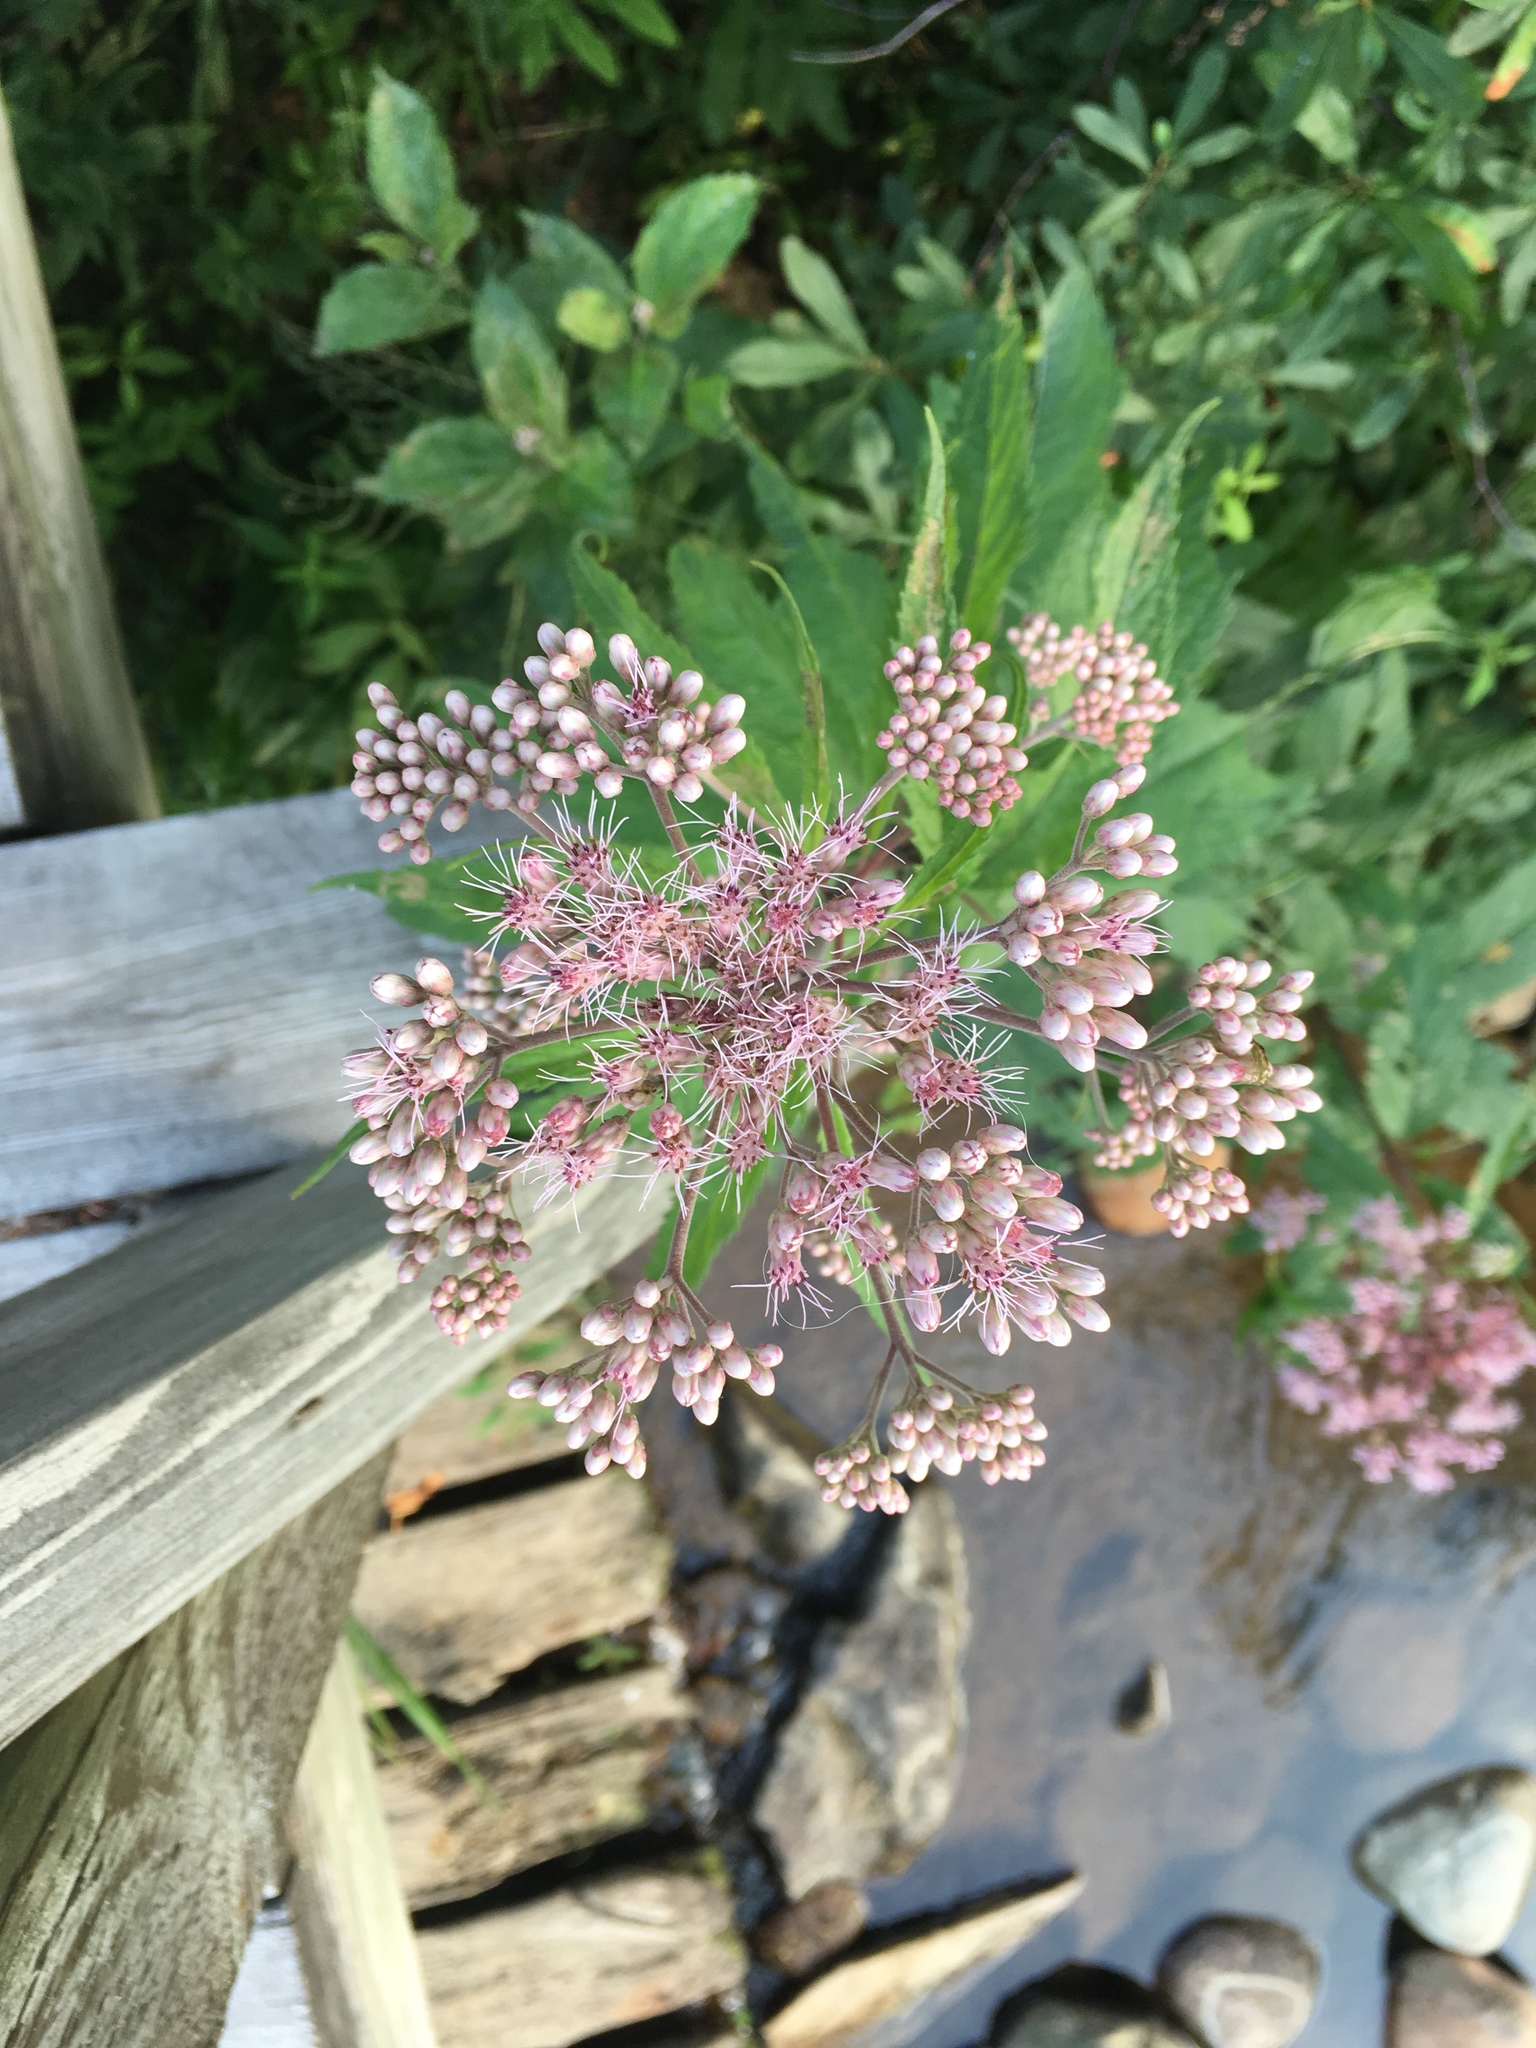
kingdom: Plantae
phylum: Tracheophyta
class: Magnoliopsida
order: Asterales
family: Asteraceae
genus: Eutrochium
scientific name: Eutrochium maculatum
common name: Spotted joe pye weed
